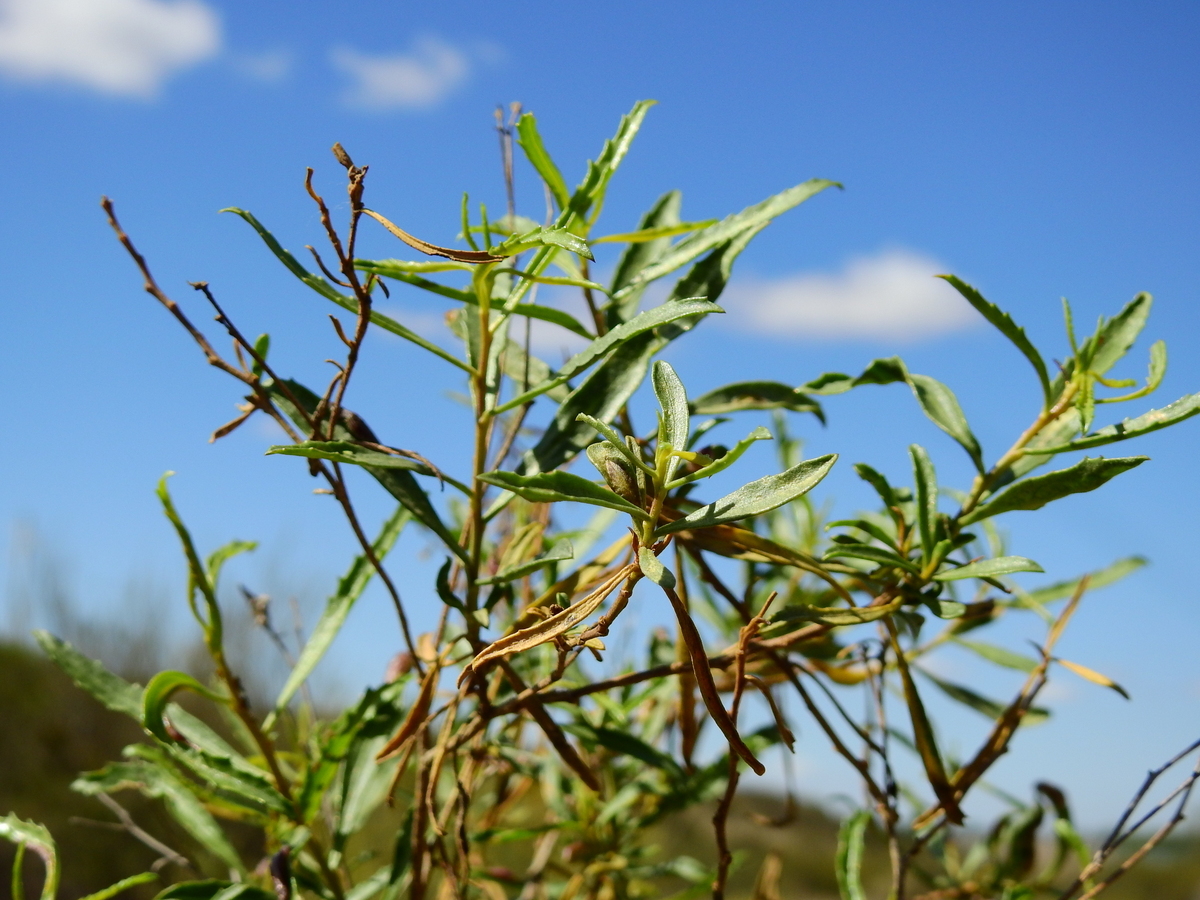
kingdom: Plantae
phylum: Tracheophyta
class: Magnoliopsida
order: Asterales
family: Asteraceae
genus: Baccharis
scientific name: Baccharis salicifolia
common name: Sticky baccharis
